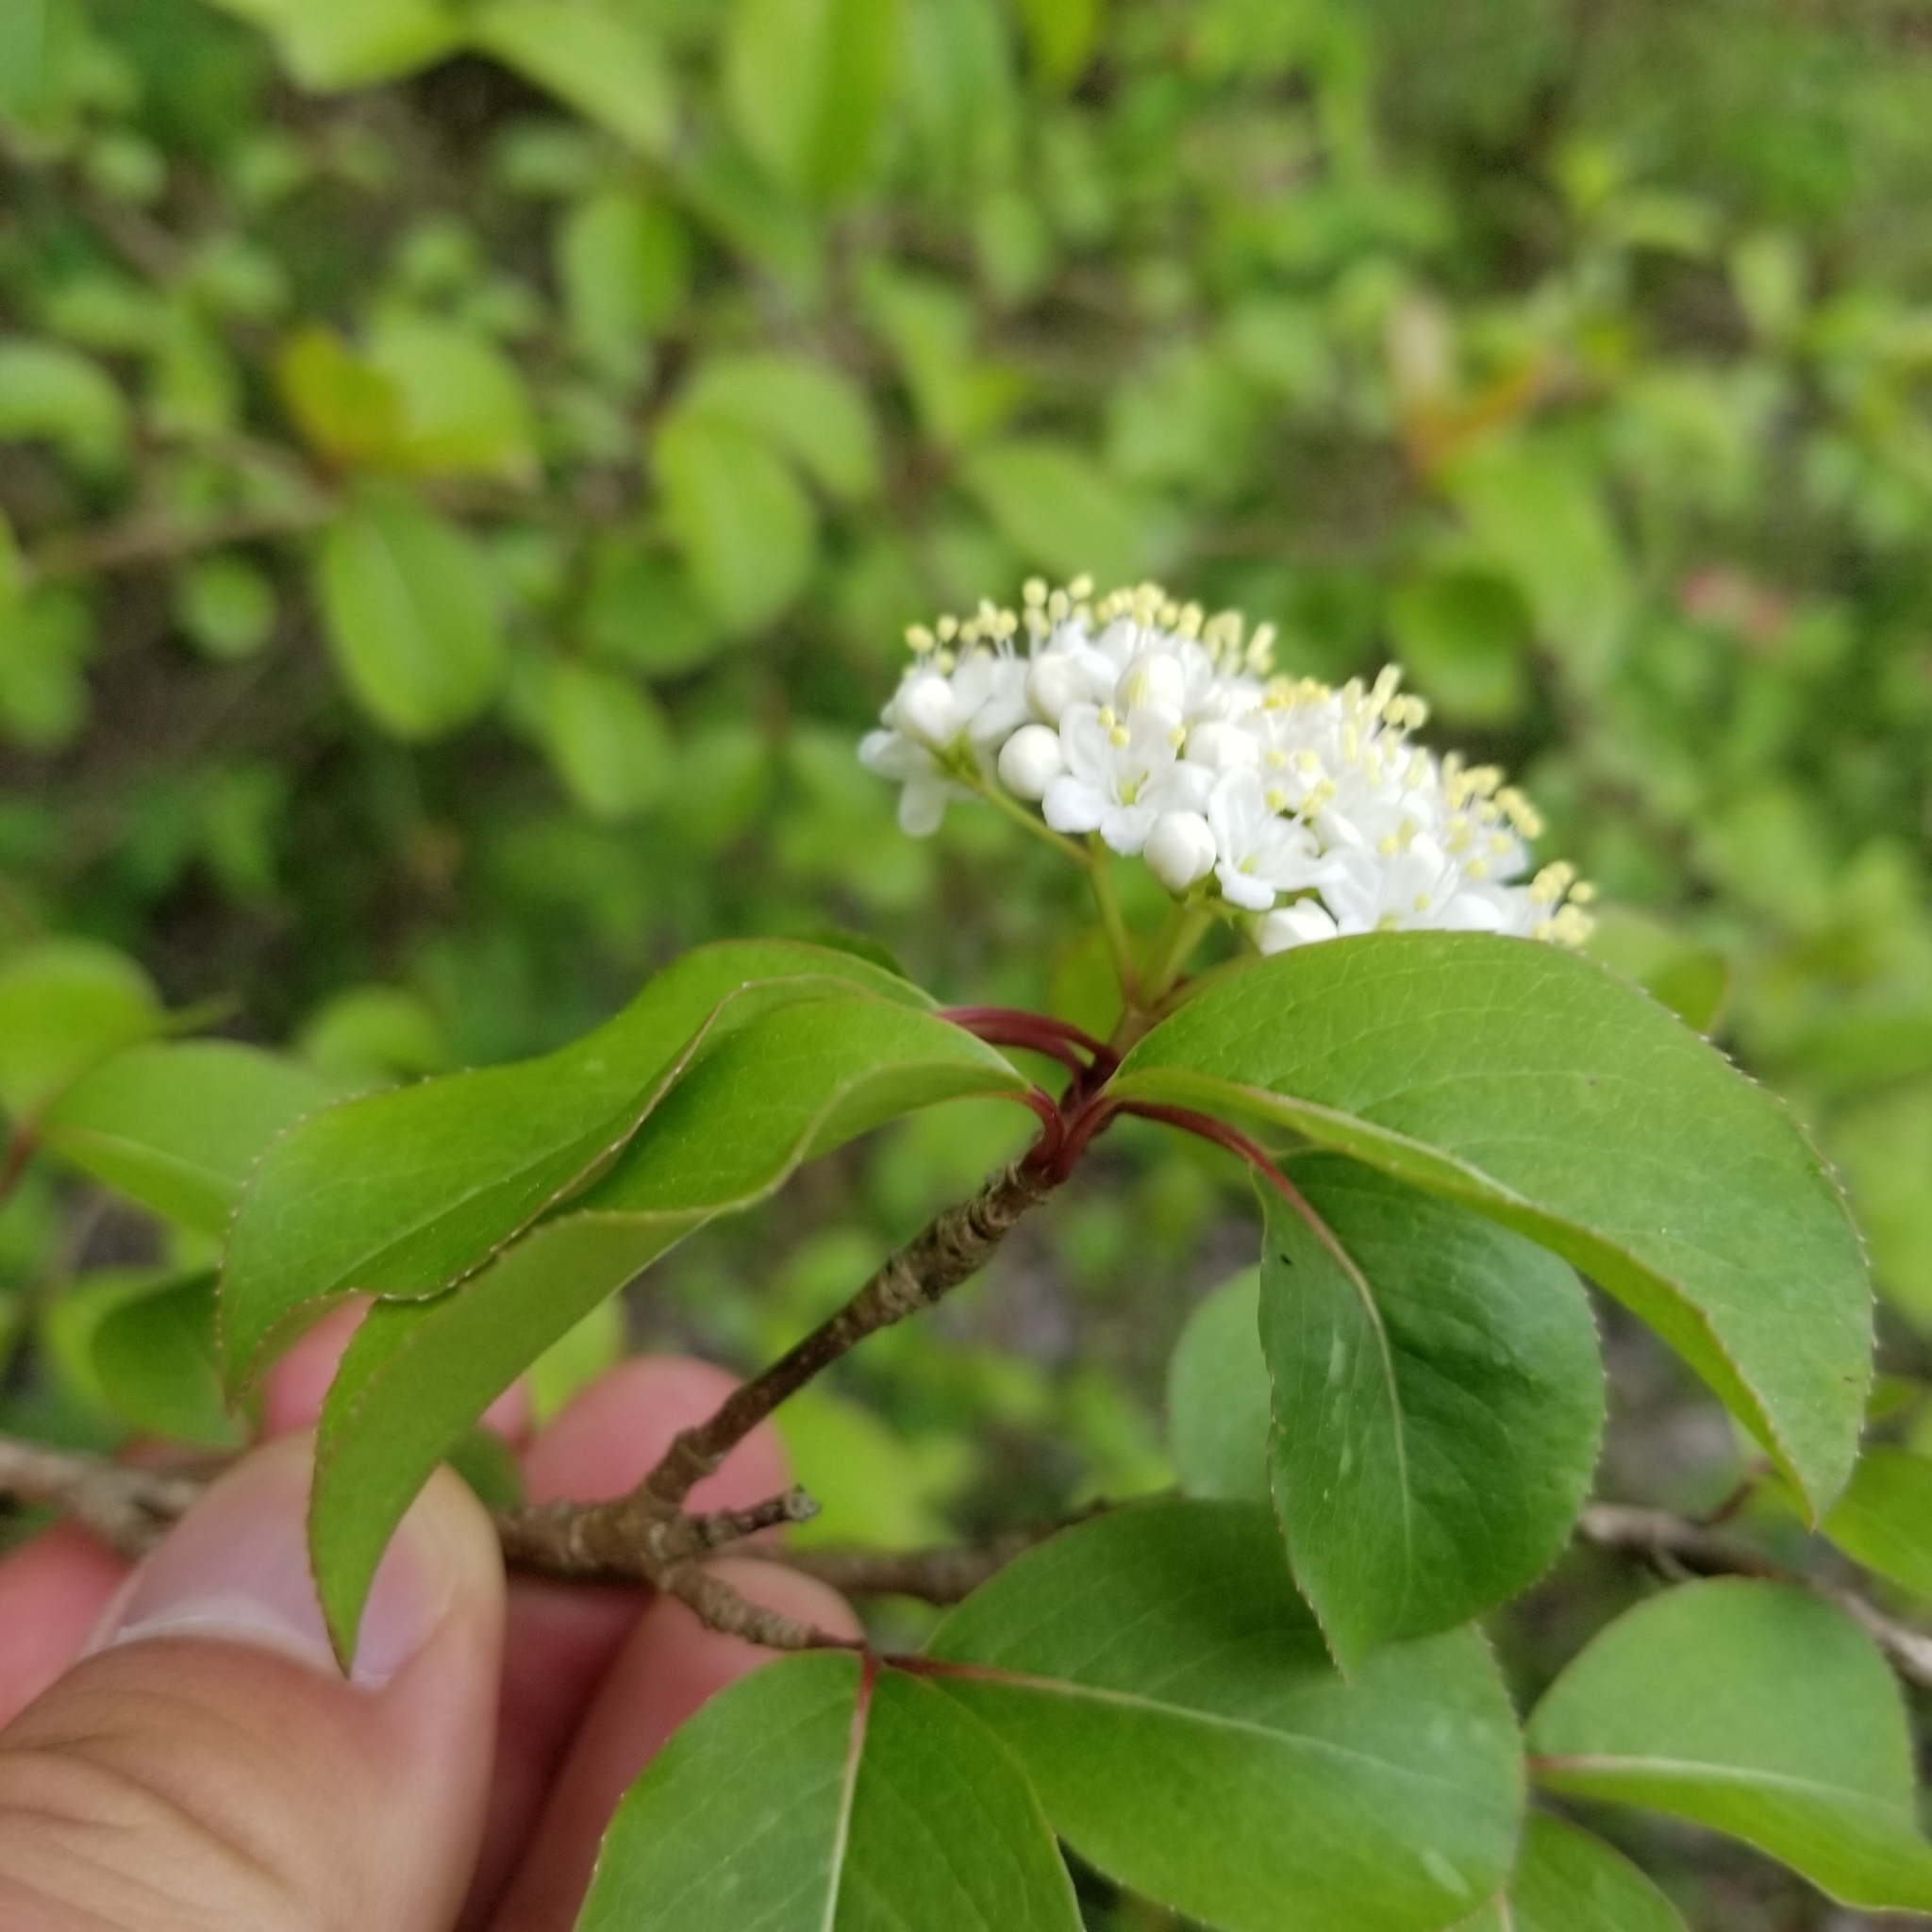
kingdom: Plantae
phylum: Tracheophyta
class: Magnoliopsida
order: Dipsacales
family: Viburnaceae
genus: Viburnum
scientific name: Viburnum prunifolium
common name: Black haw
